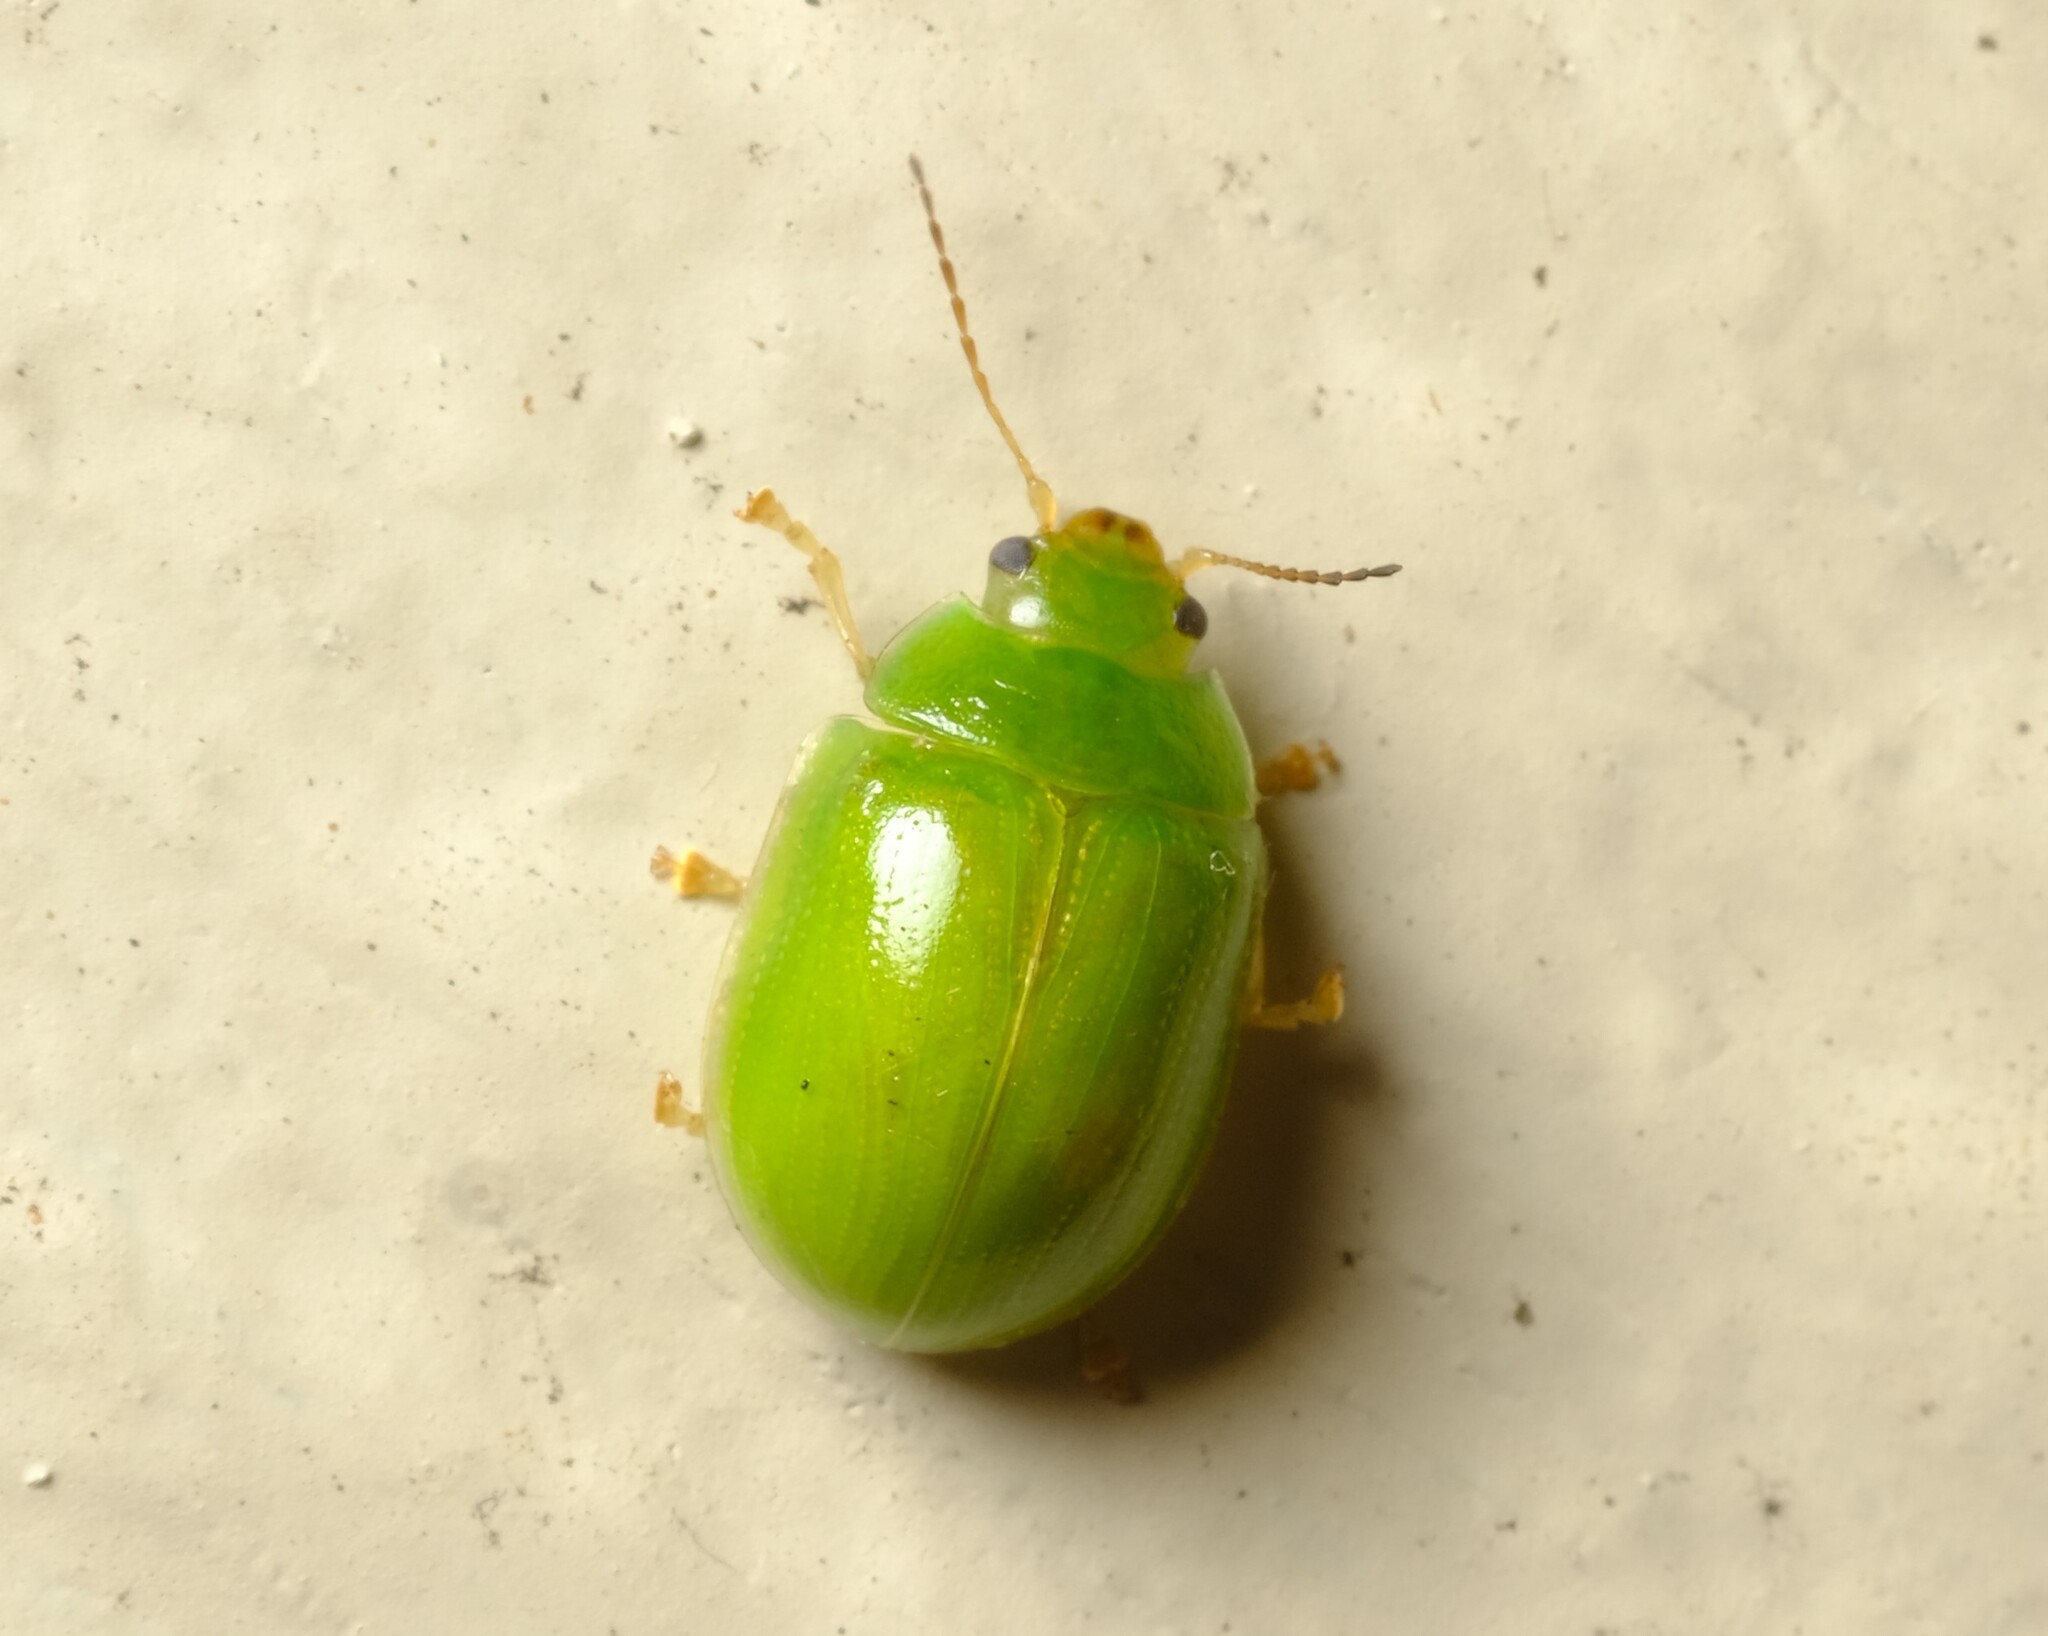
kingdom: Animalia
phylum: Arthropoda
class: Insecta
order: Coleoptera
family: Chrysomelidae
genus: Paropsides
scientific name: Paropsides
